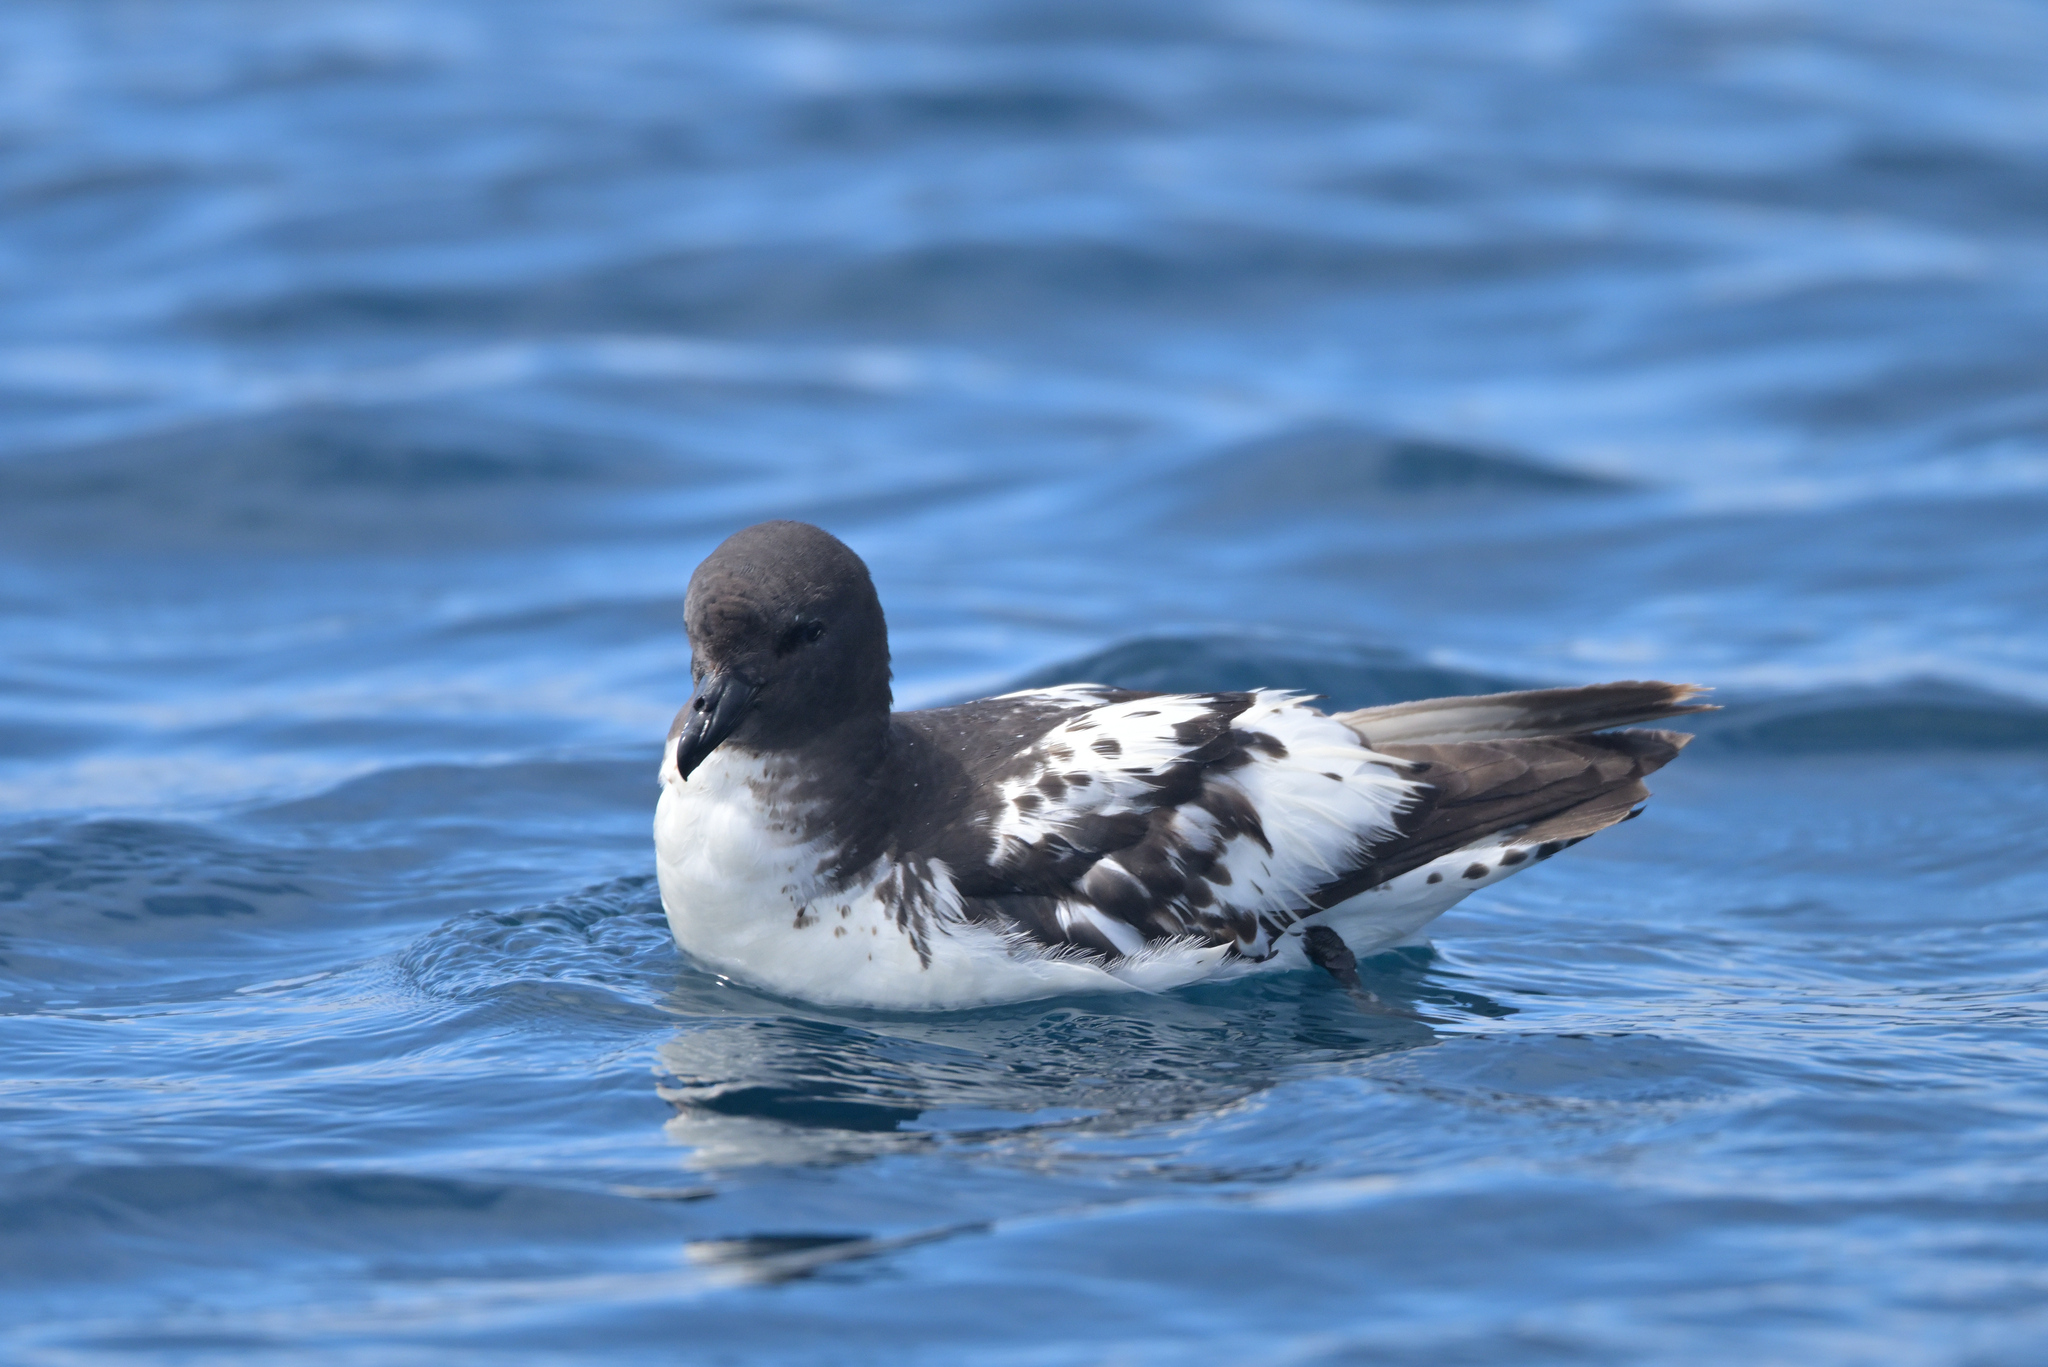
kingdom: Animalia
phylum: Chordata
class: Aves
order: Procellariiformes
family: Procellariidae
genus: Daption
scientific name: Daption capense
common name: Cape petrel
